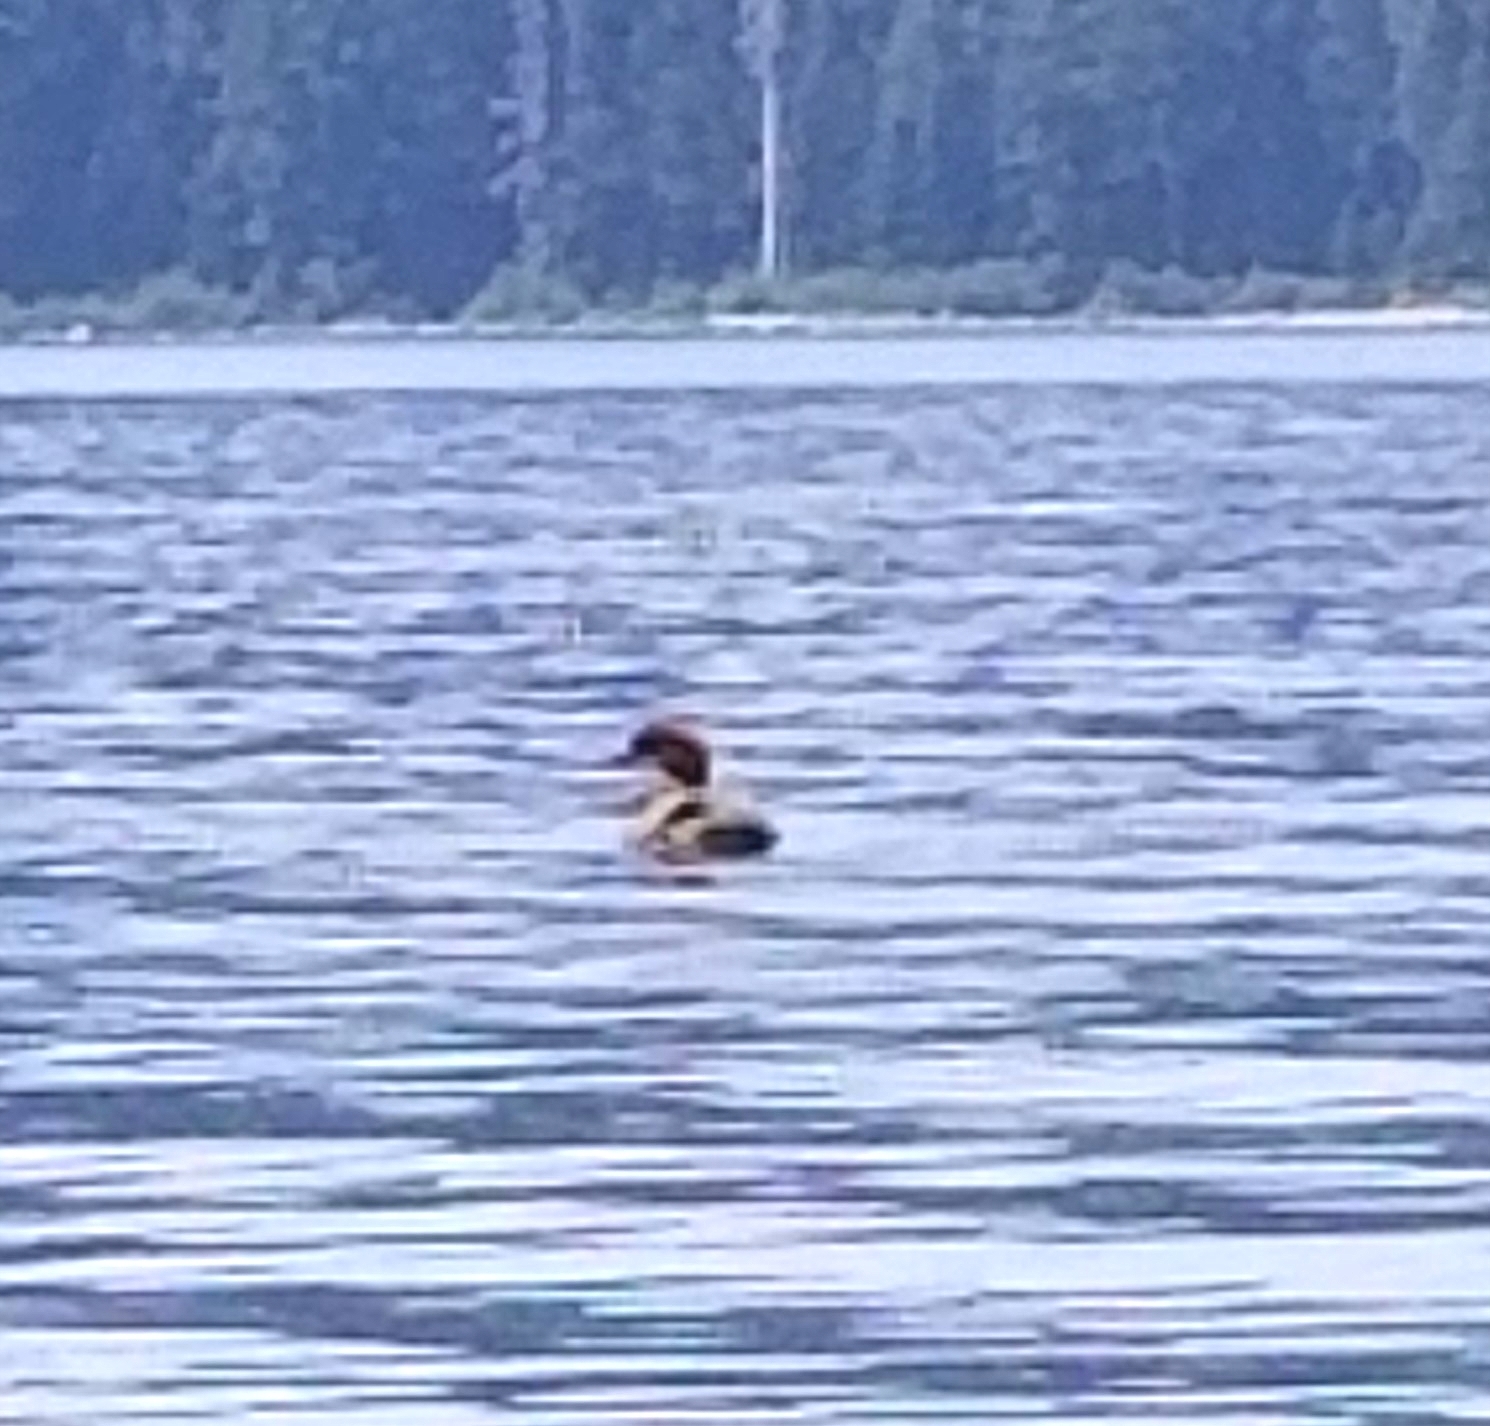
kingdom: Animalia
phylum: Chordata
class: Aves
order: Anseriformes
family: Anatidae
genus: Mergus
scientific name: Mergus merganser
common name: Common merganser
